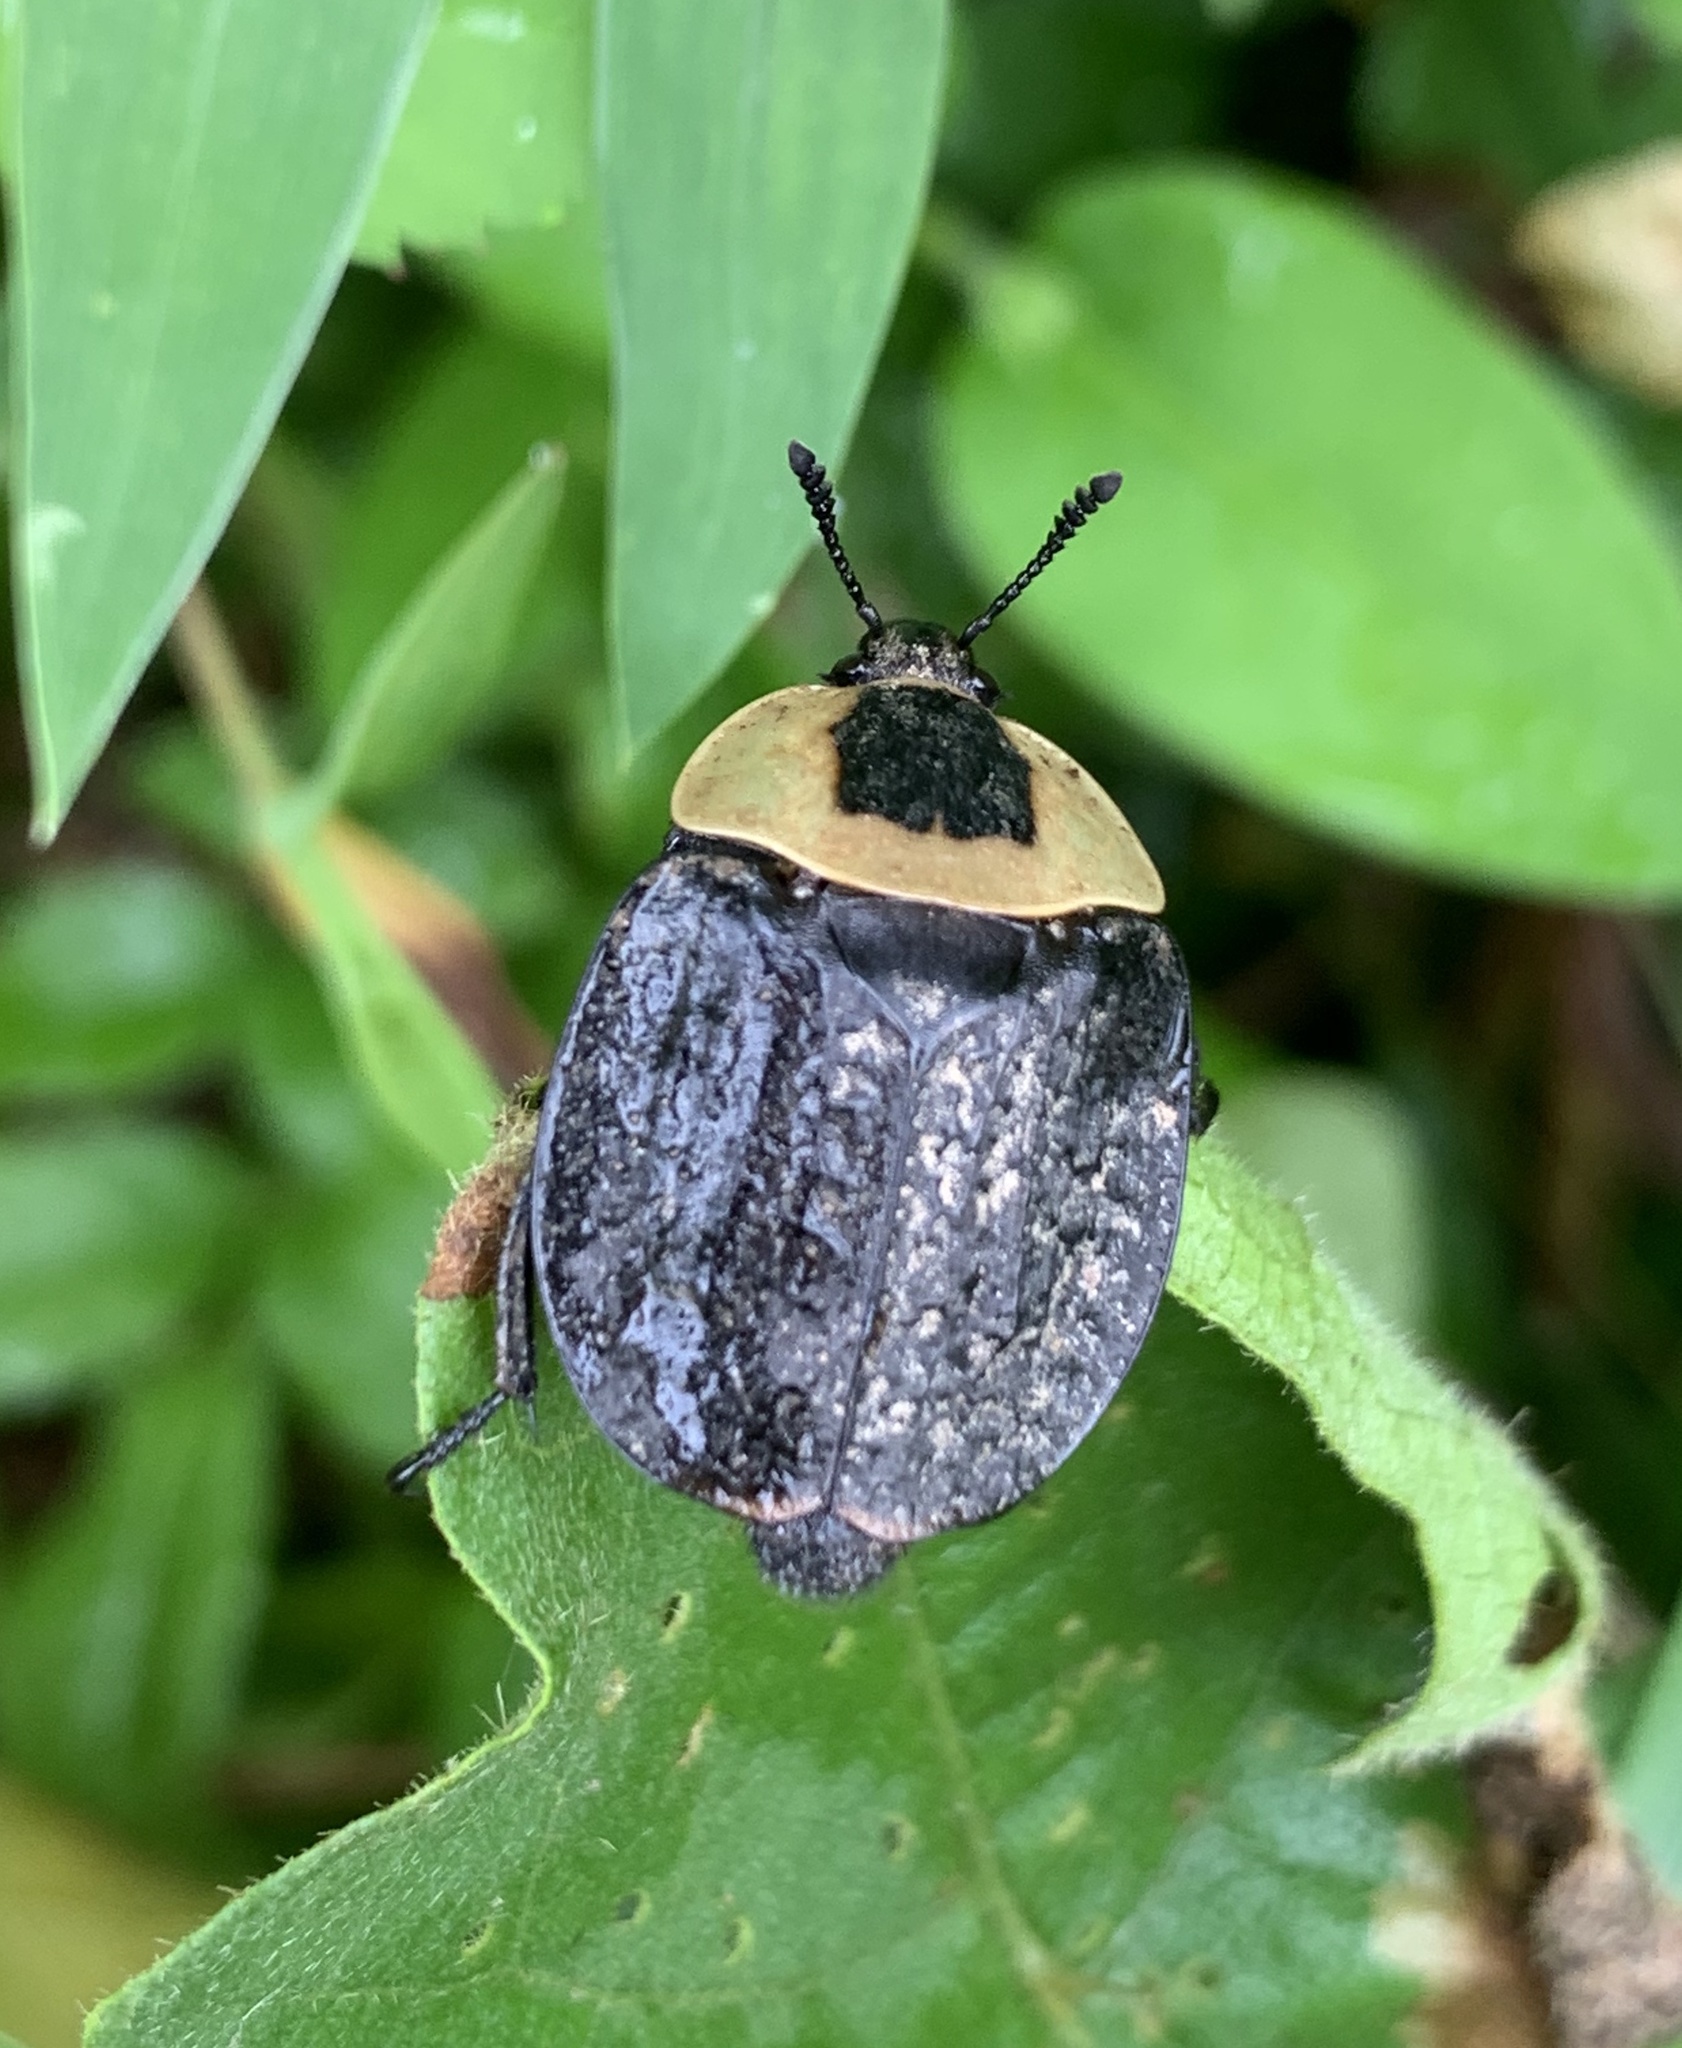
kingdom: Animalia
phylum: Arthropoda
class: Insecta
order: Coleoptera
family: Staphylinidae
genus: Necrophila
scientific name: Necrophila americana
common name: American carrion beetle
